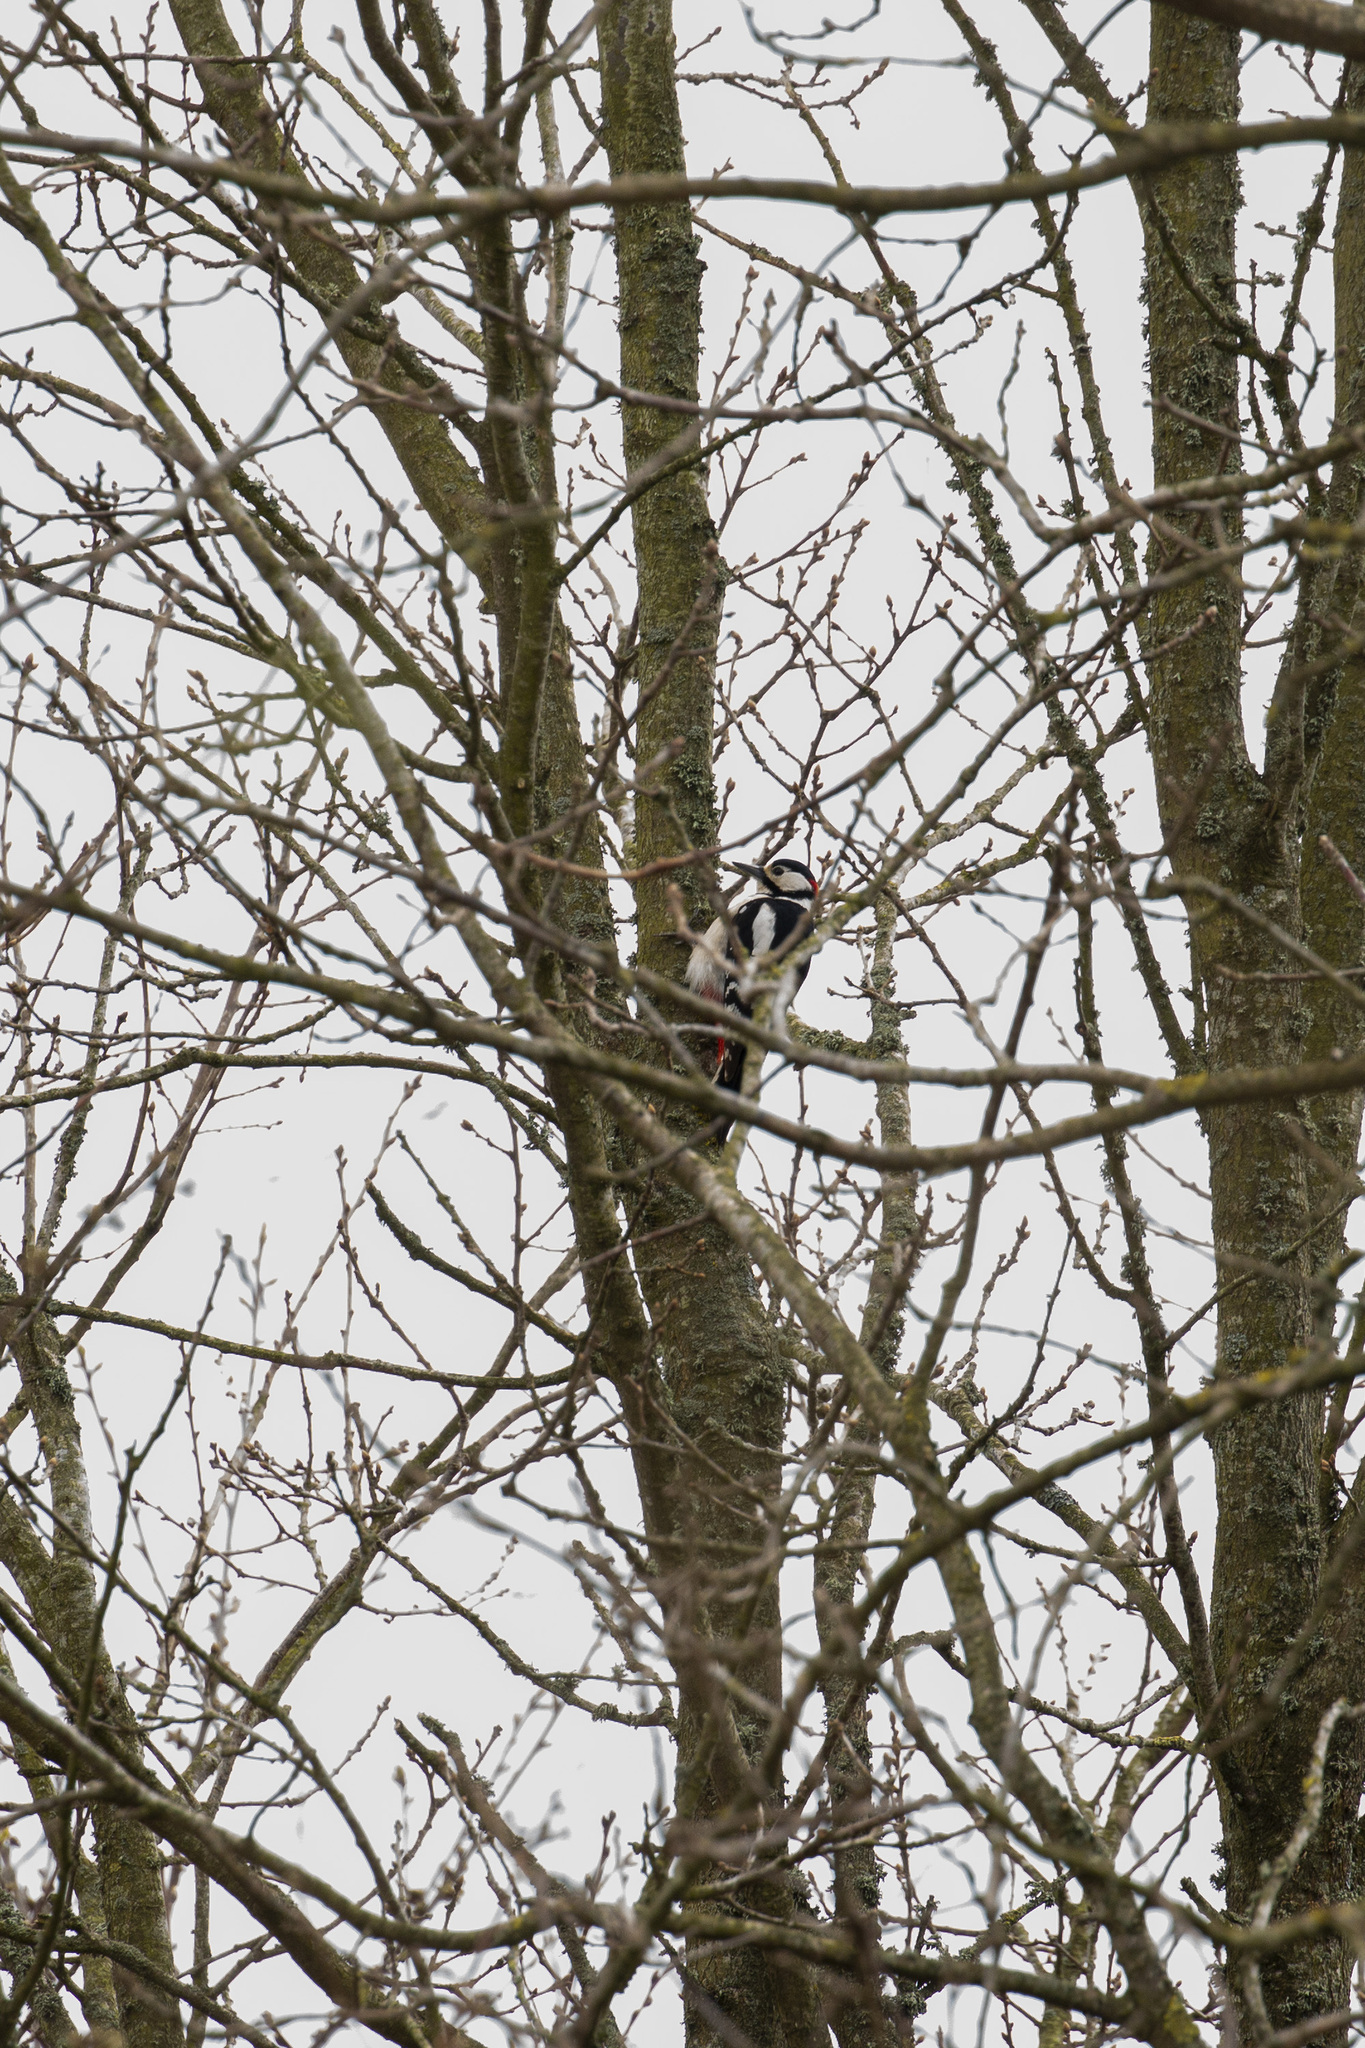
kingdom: Animalia
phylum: Chordata
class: Aves
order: Piciformes
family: Picidae
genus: Dendrocopos
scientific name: Dendrocopos major
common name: Great spotted woodpecker
